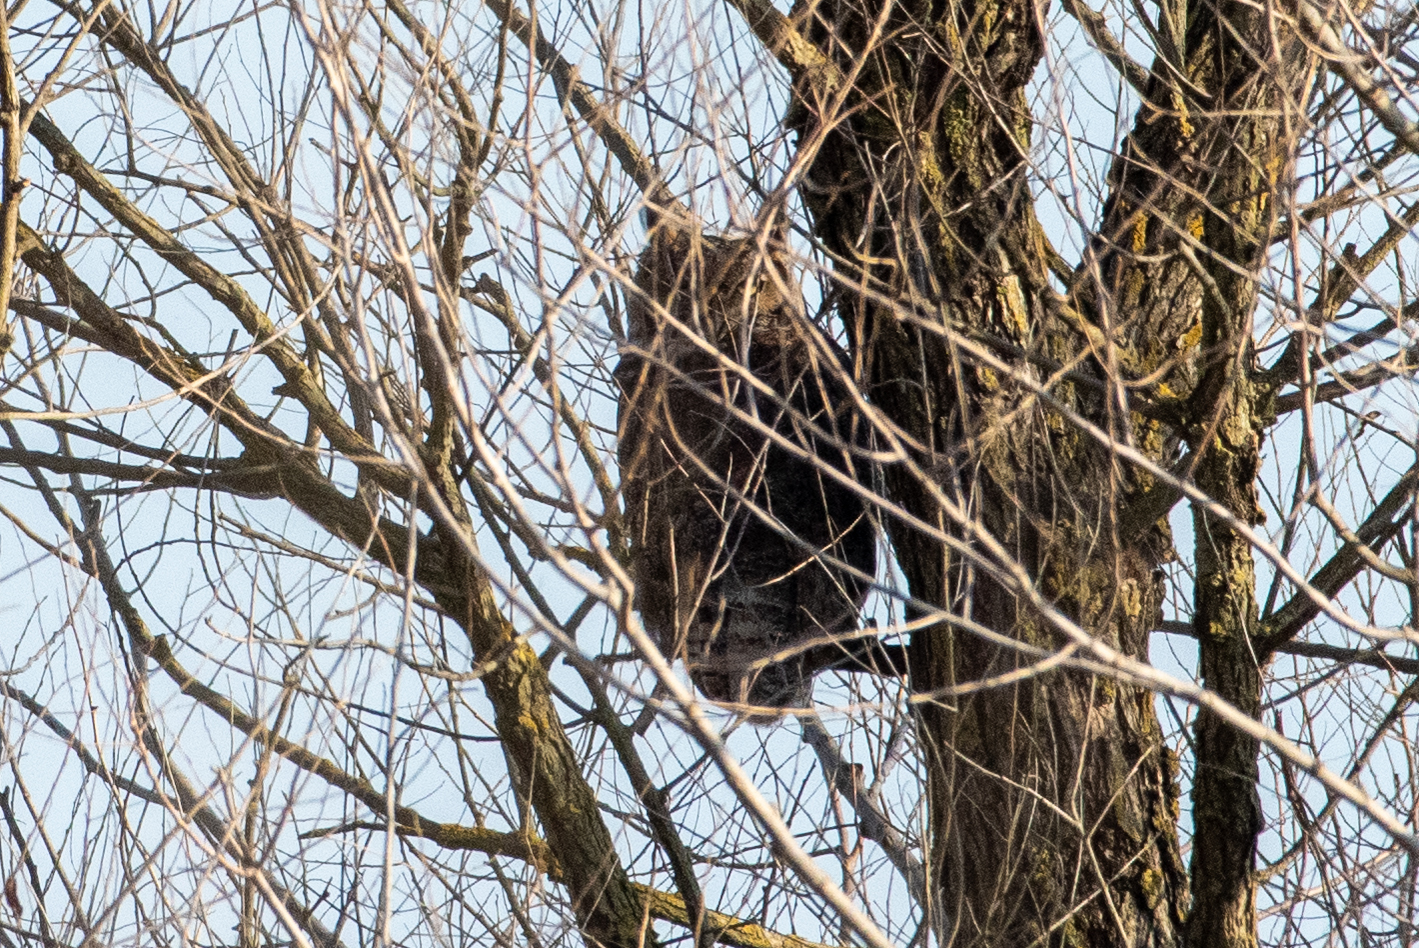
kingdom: Animalia
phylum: Chordata
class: Aves
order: Strigiformes
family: Strigidae
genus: Bubo
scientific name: Bubo virginianus
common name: Great horned owl
